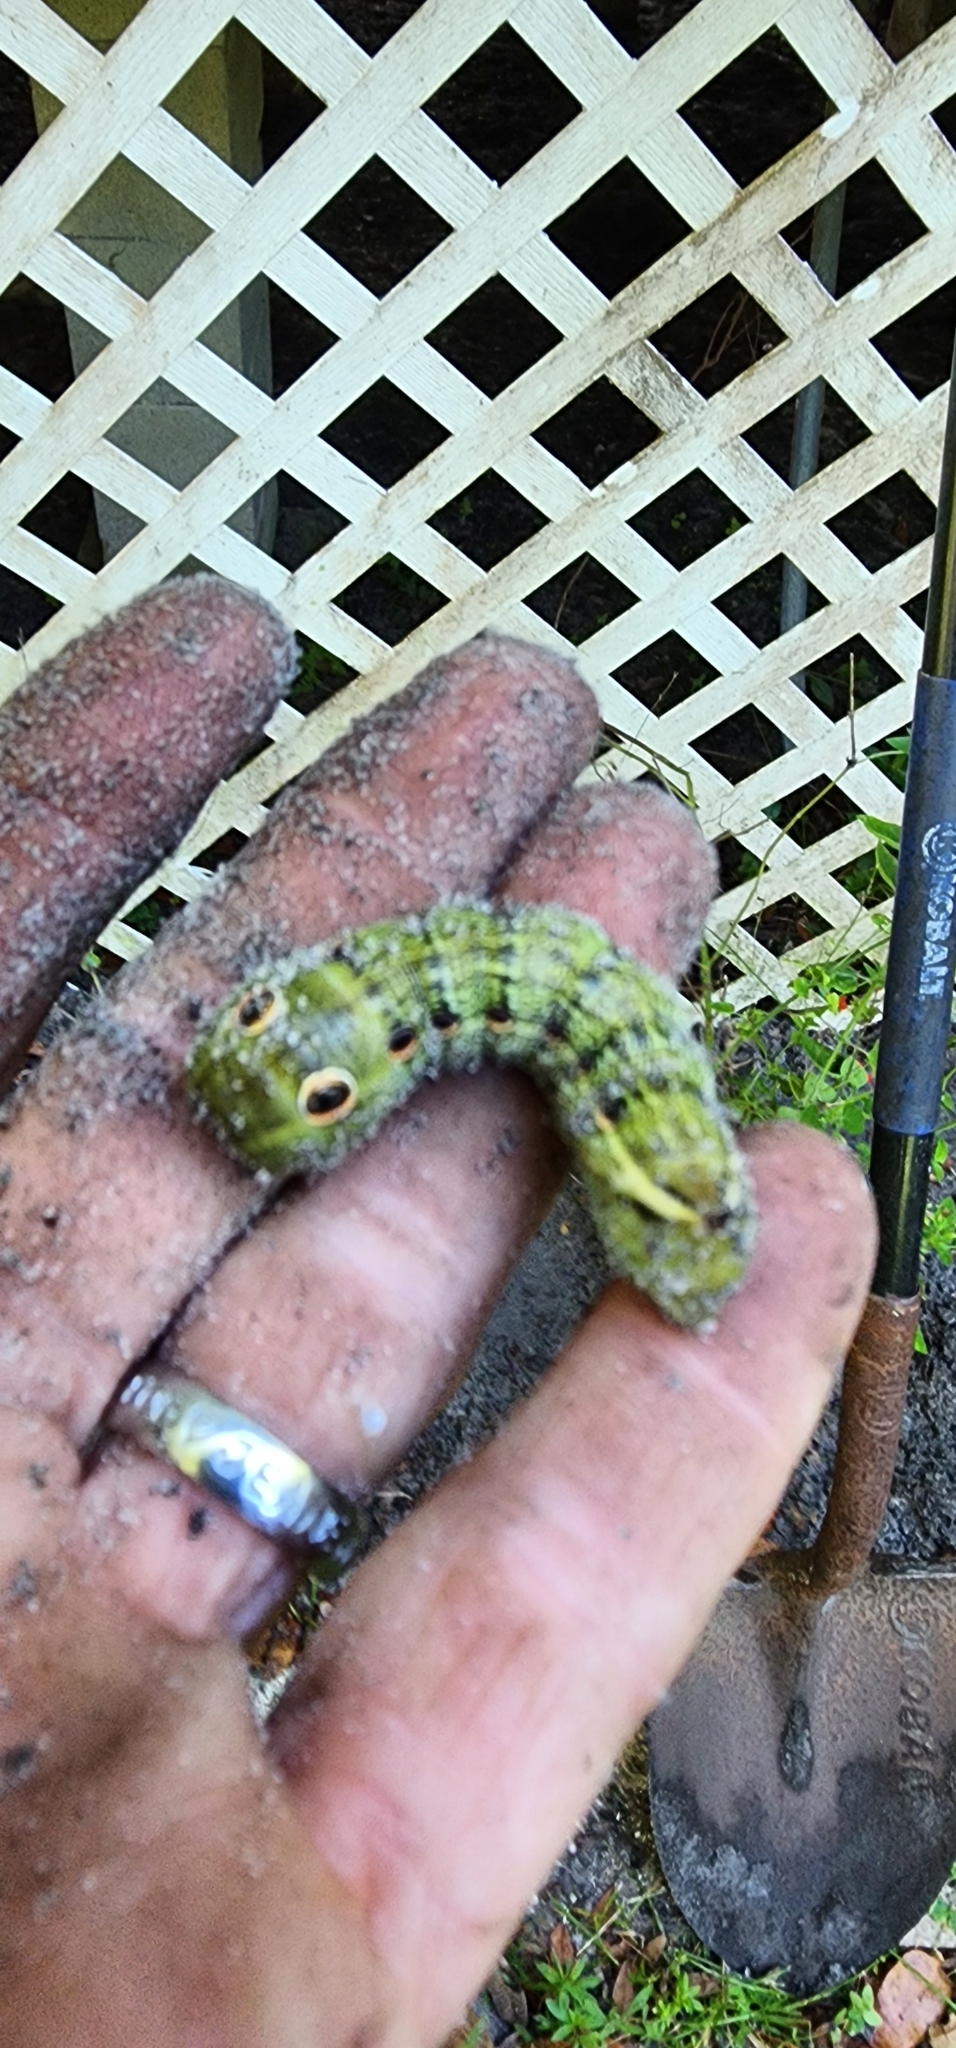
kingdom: Animalia
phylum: Arthropoda
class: Insecta
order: Lepidoptera
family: Sphingidae
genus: Xylophanes
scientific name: Xylophanes tersa
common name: Tersa sphinx
